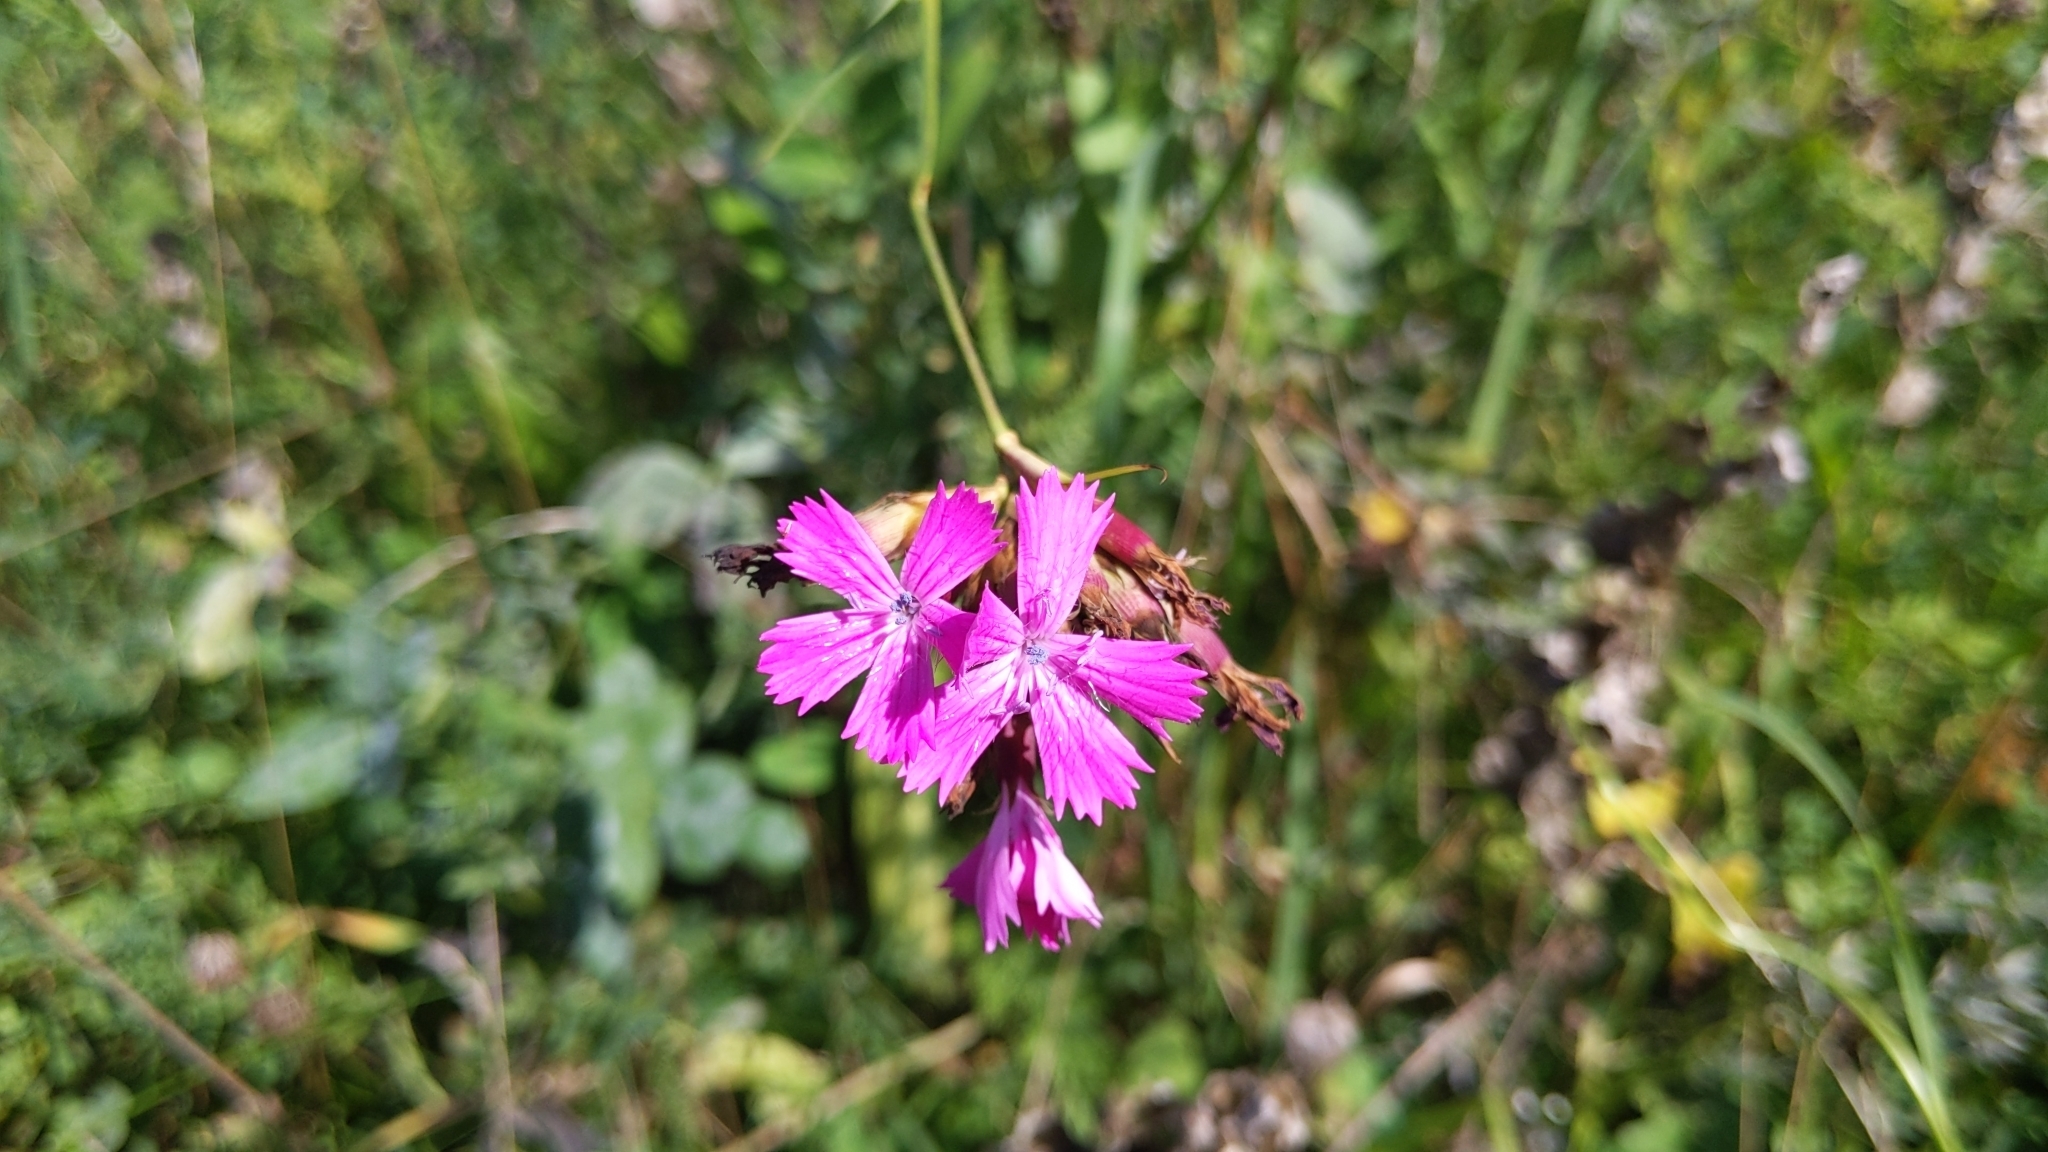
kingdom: Plantae
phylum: Tracheophyta
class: Magnoliopsida
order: Caryophyllales
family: Caryophyllaceae
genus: Dianthus
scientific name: Dianthus carthusianorum
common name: Carthusian pink
